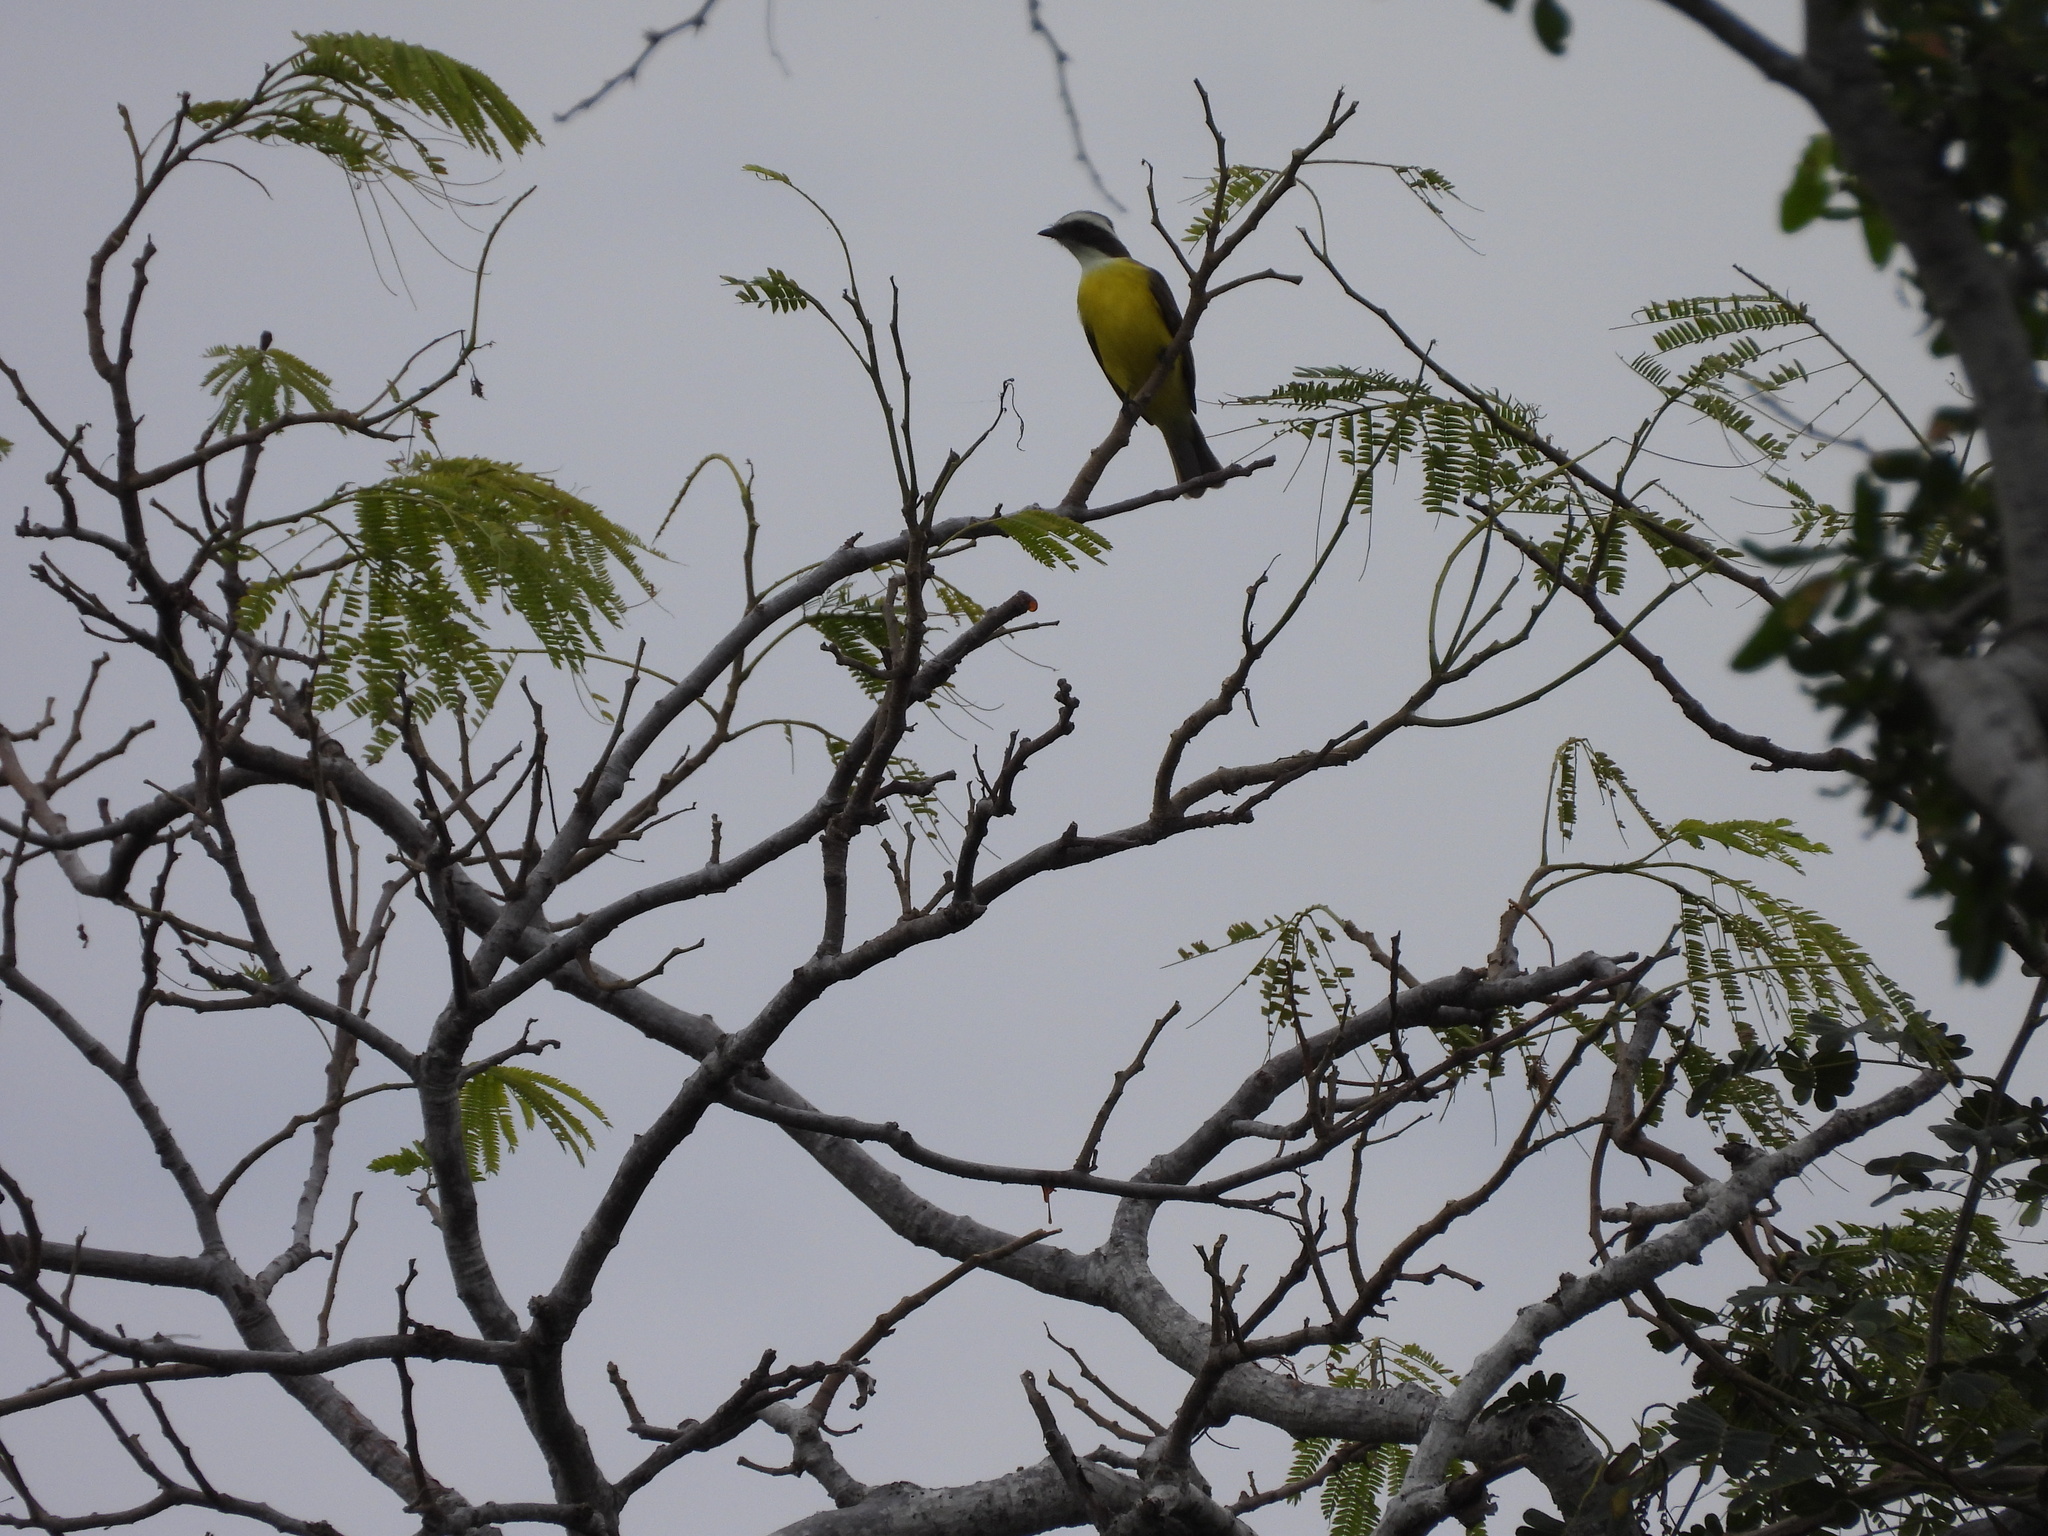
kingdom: Animalia
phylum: Chordata
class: Aves
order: Passeriformes
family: Tyrannidae
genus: Myiozetetes
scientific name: Myiozetetes similis
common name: Social flycatcher
